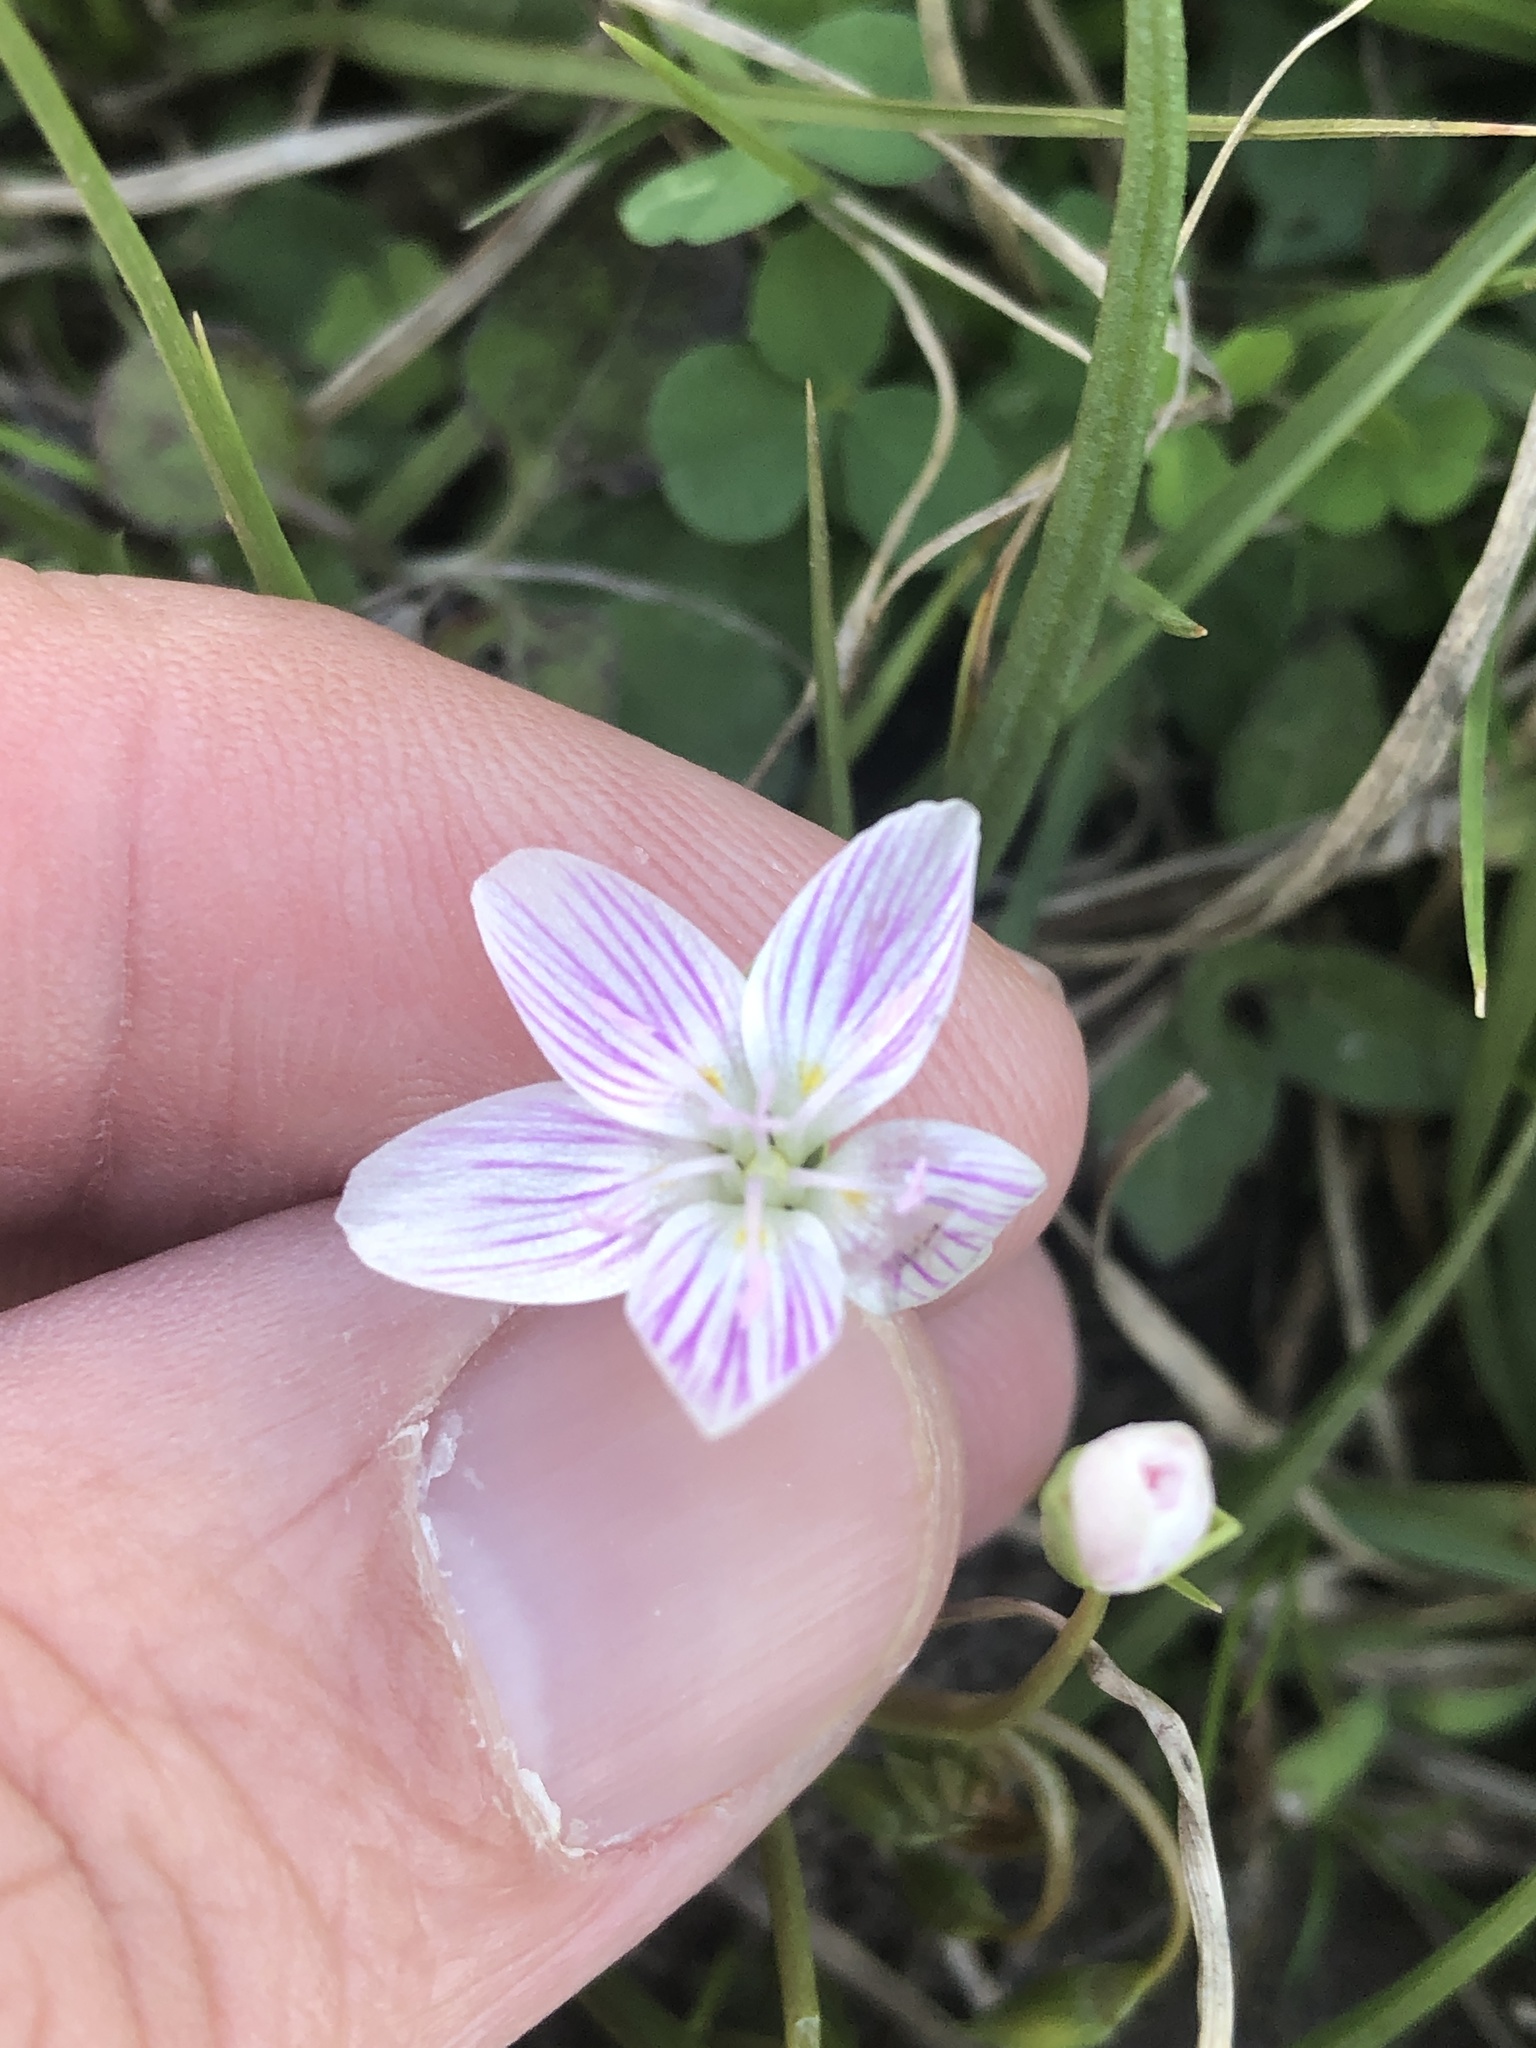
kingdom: Plantae
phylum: Tracheophyta
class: Magnoliopsida
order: Caryophyllales
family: Montiaceae
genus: Claytonia
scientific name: Claytonia virginica
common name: Virginia springbeauty
